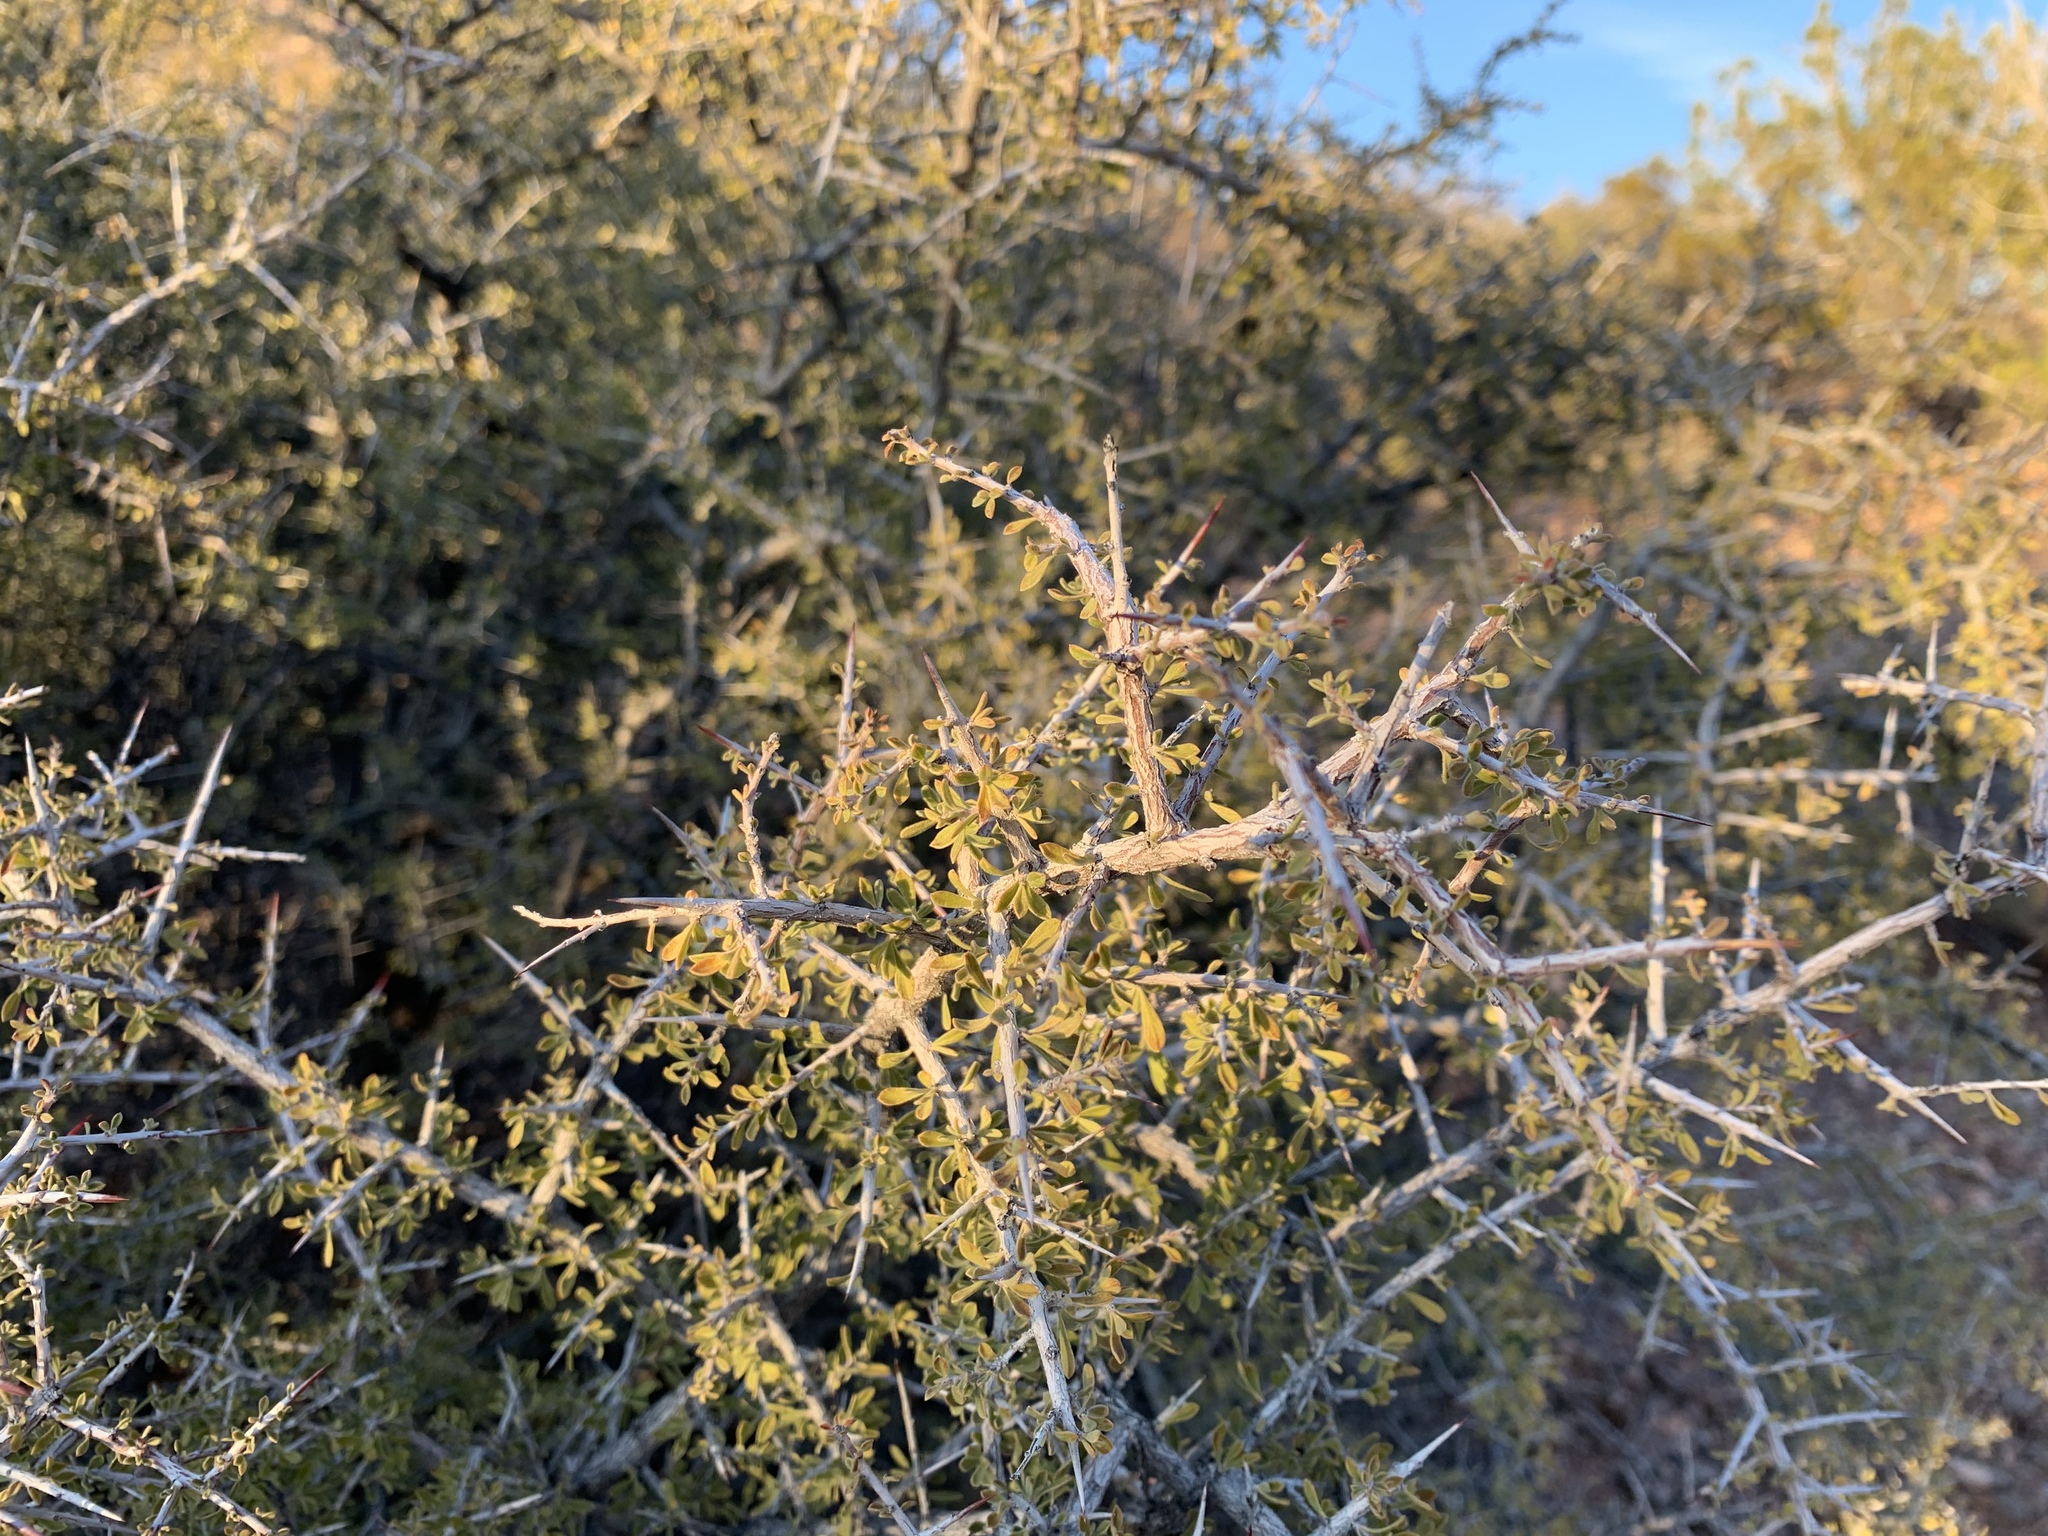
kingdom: Plantae
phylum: Tracheophyta
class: Magnoliopsida
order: Rosales
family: Rhamnaceae
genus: Condalia
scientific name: Condalia warnockii
